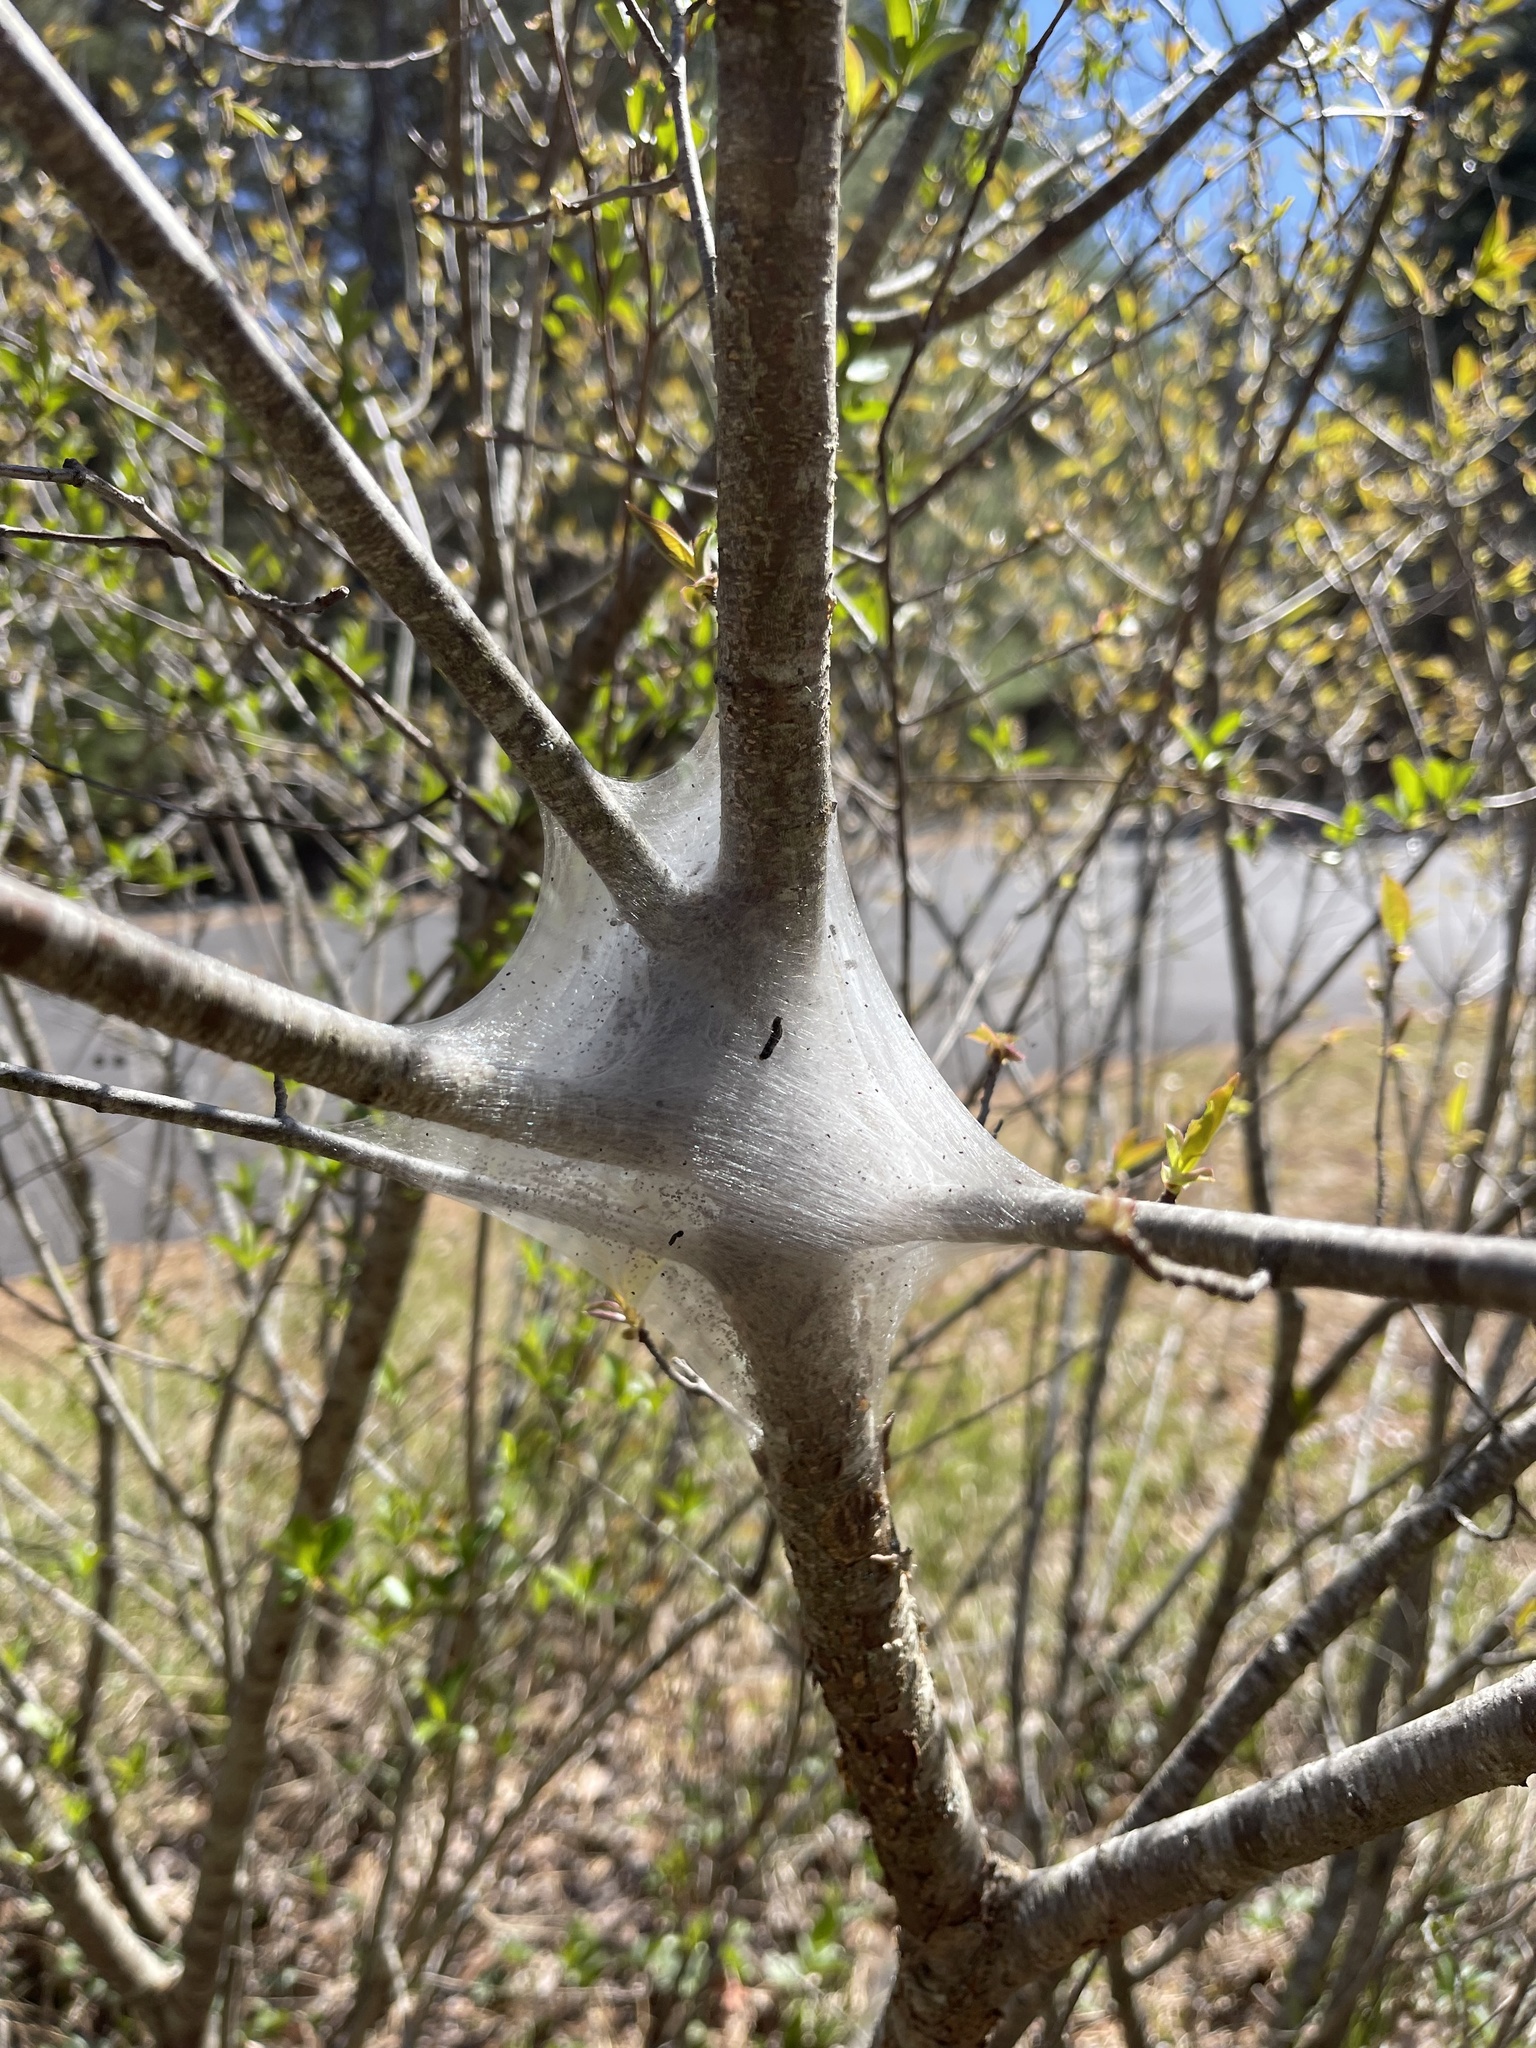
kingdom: Animalia
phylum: Arthropoda
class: Insecta
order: Lepidoptera
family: Lasiocampidae
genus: Malacosoma
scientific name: Malacosoma americana
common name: Eastern tent caterpillar moth
